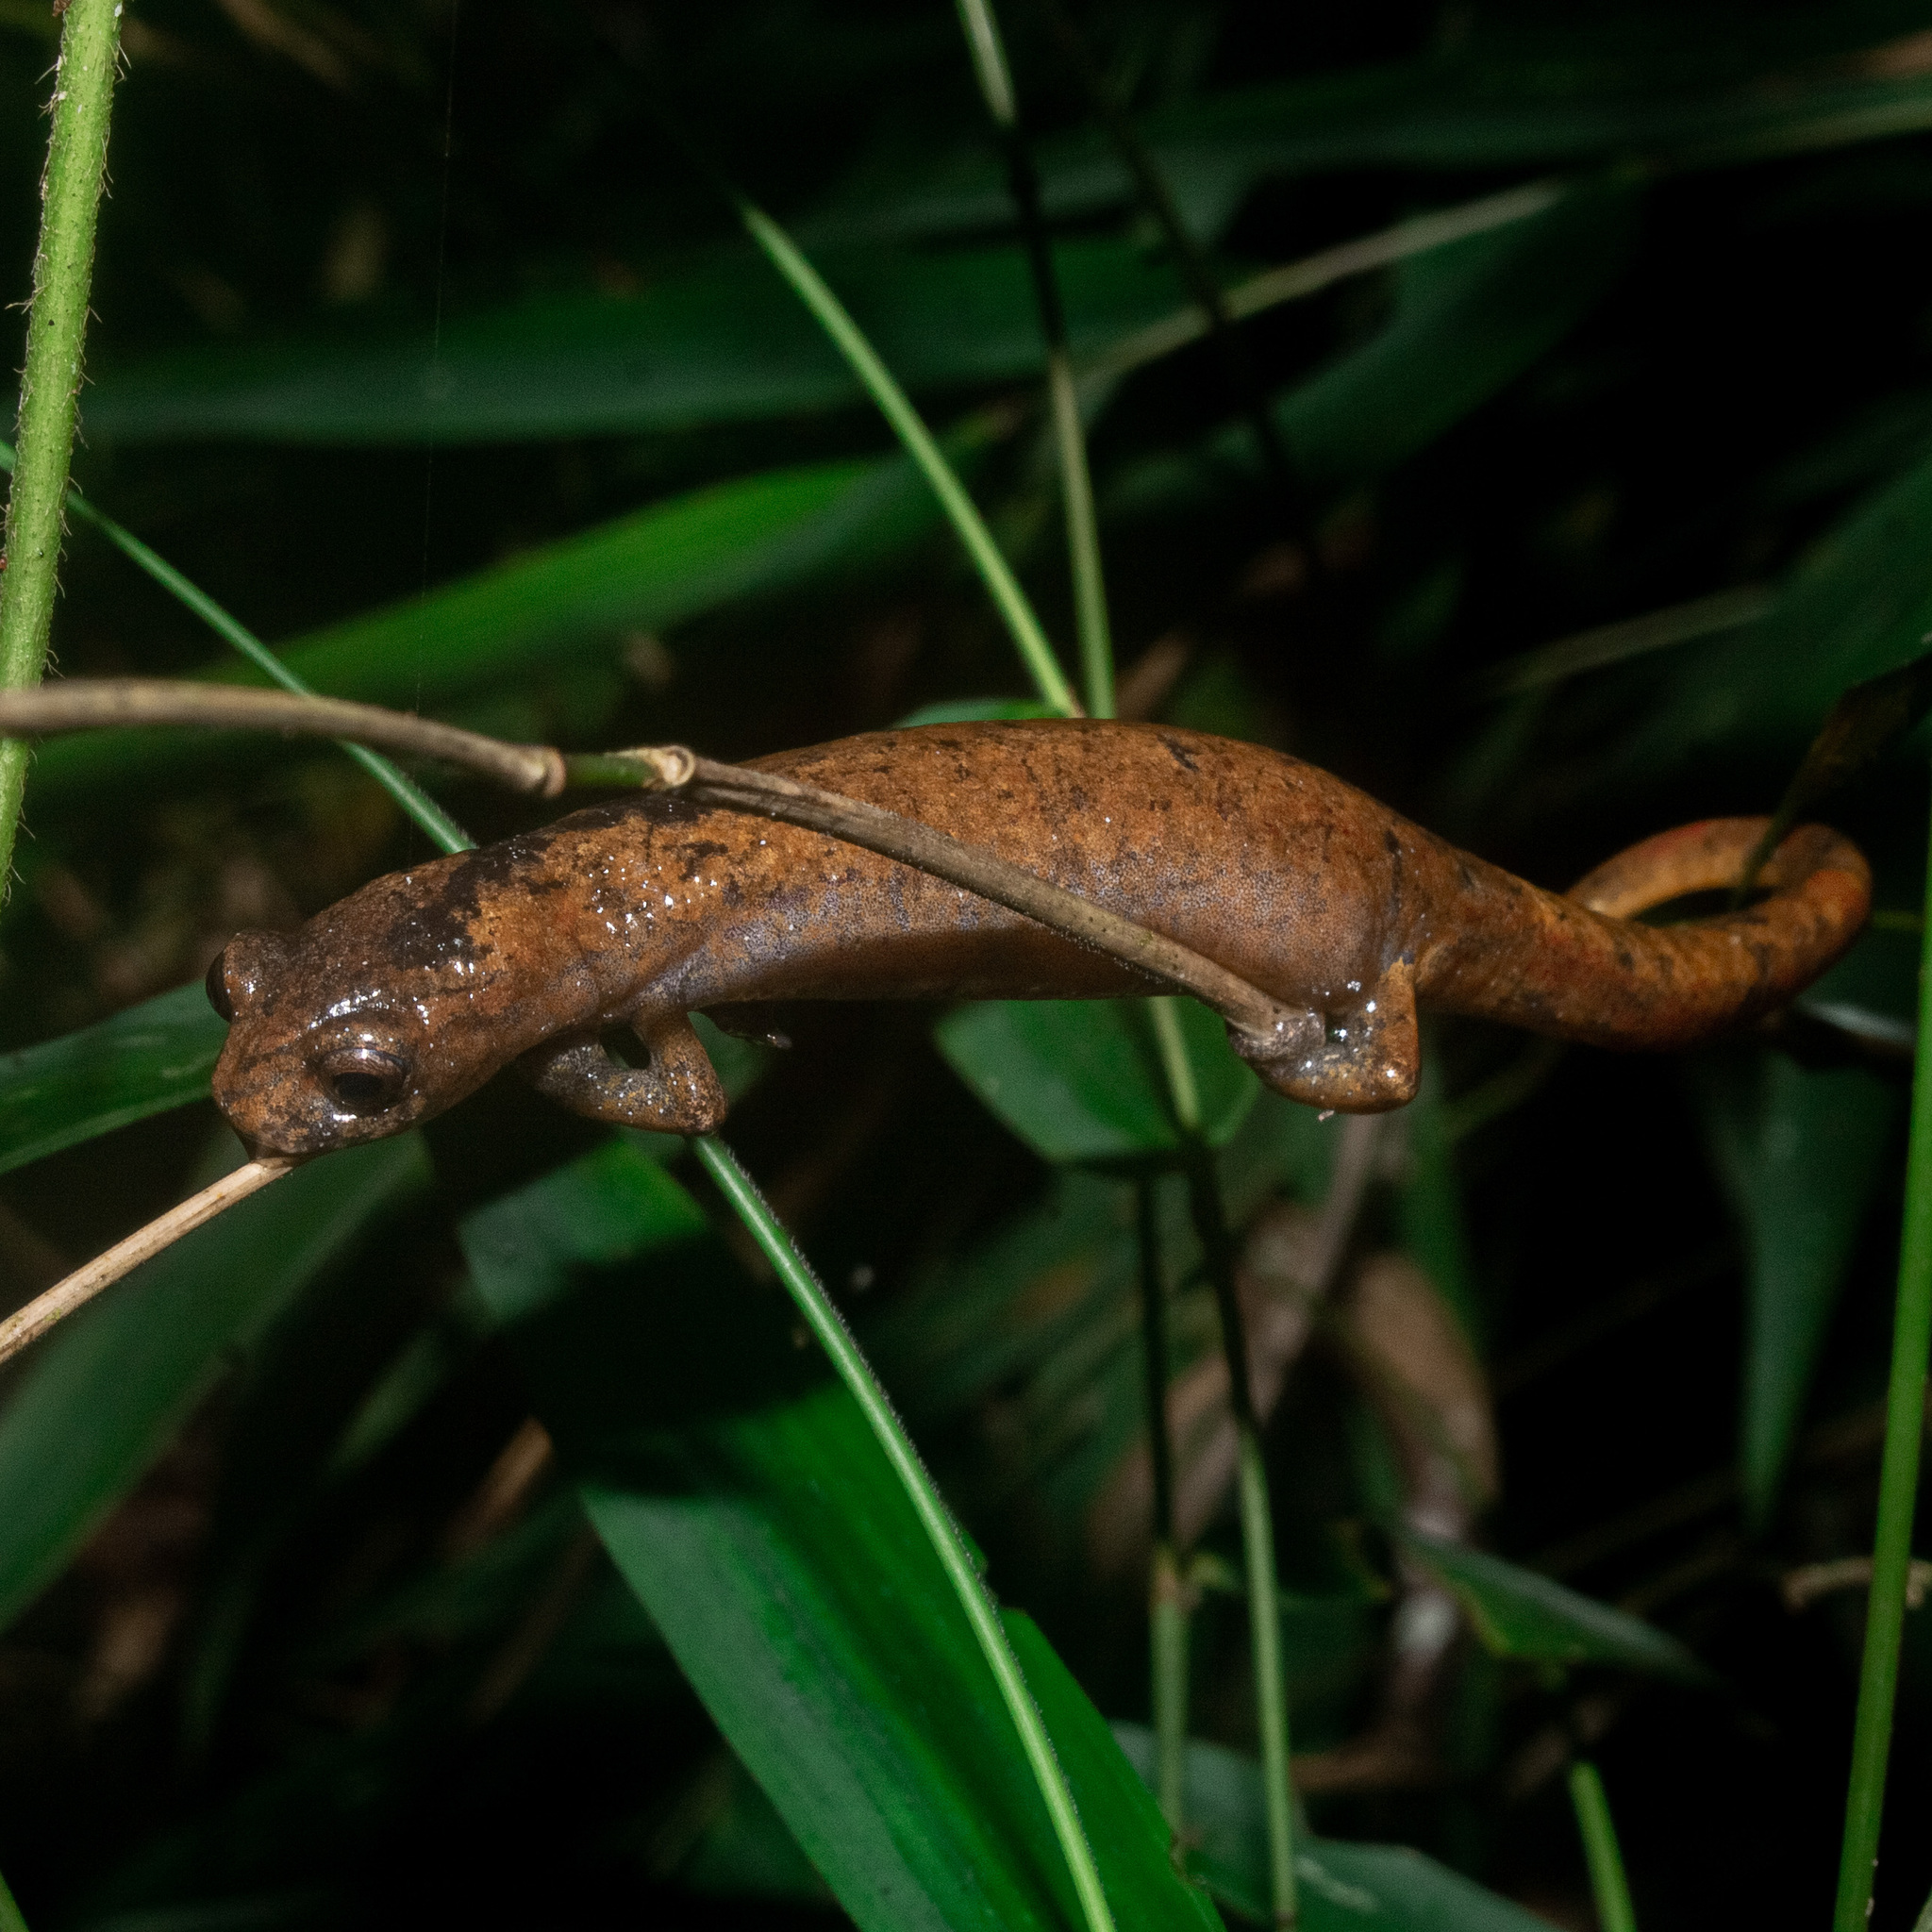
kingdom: Animalia
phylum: Chordata
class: Amphibia
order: Caudata
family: Plethodontidae
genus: Bolitoglossa
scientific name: Bolitoglossa savagei
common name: Savage's mushroomtongue salamander
